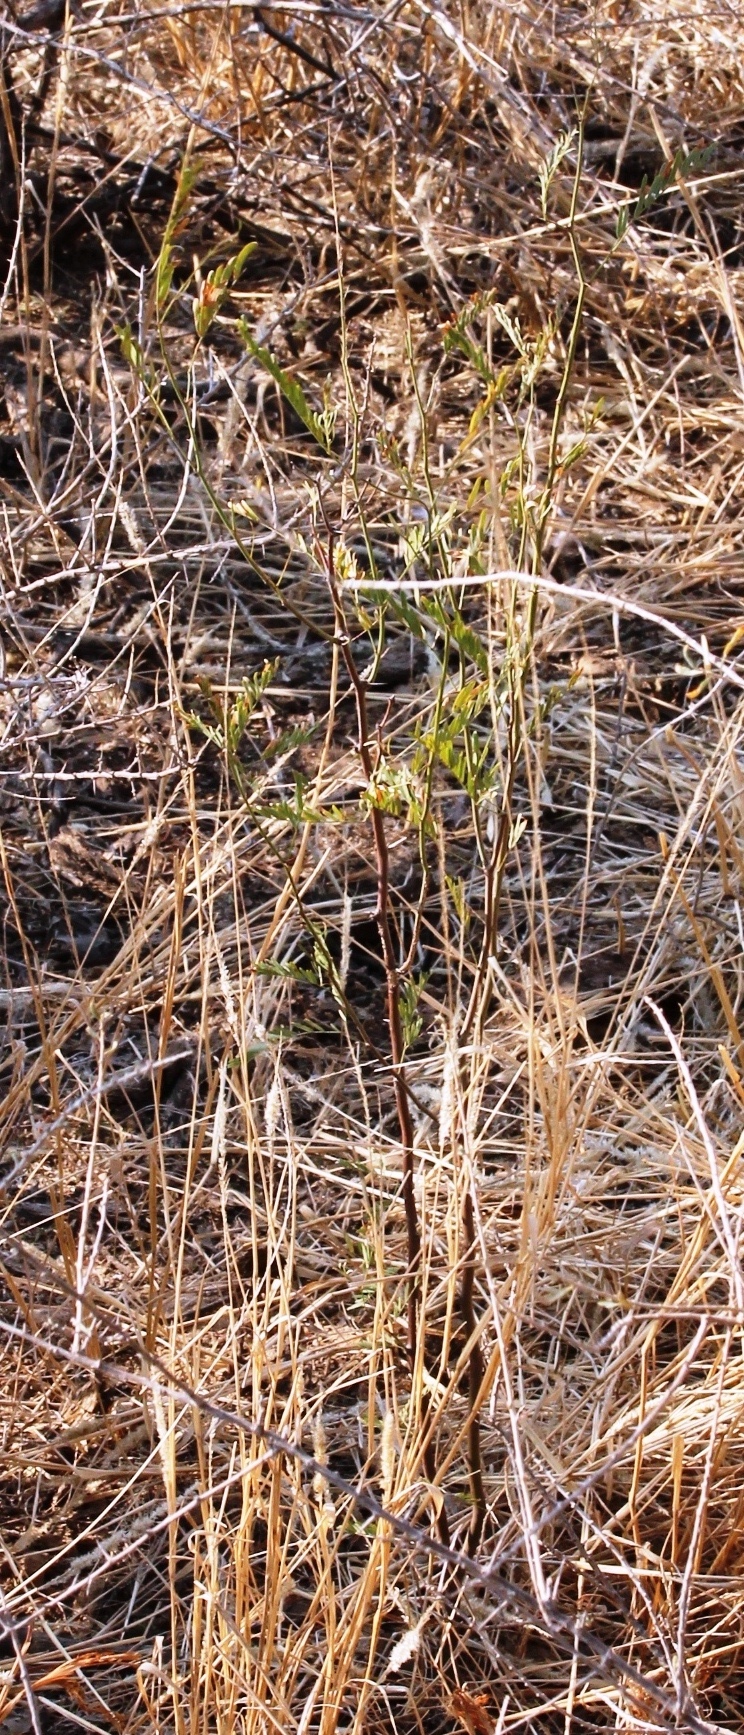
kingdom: Plantae
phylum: Tracheophyta
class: Magnoliopsida
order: Fabales
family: Fabaceae
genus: Prosopis
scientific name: Prosopis pubescens
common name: Screw-bean
